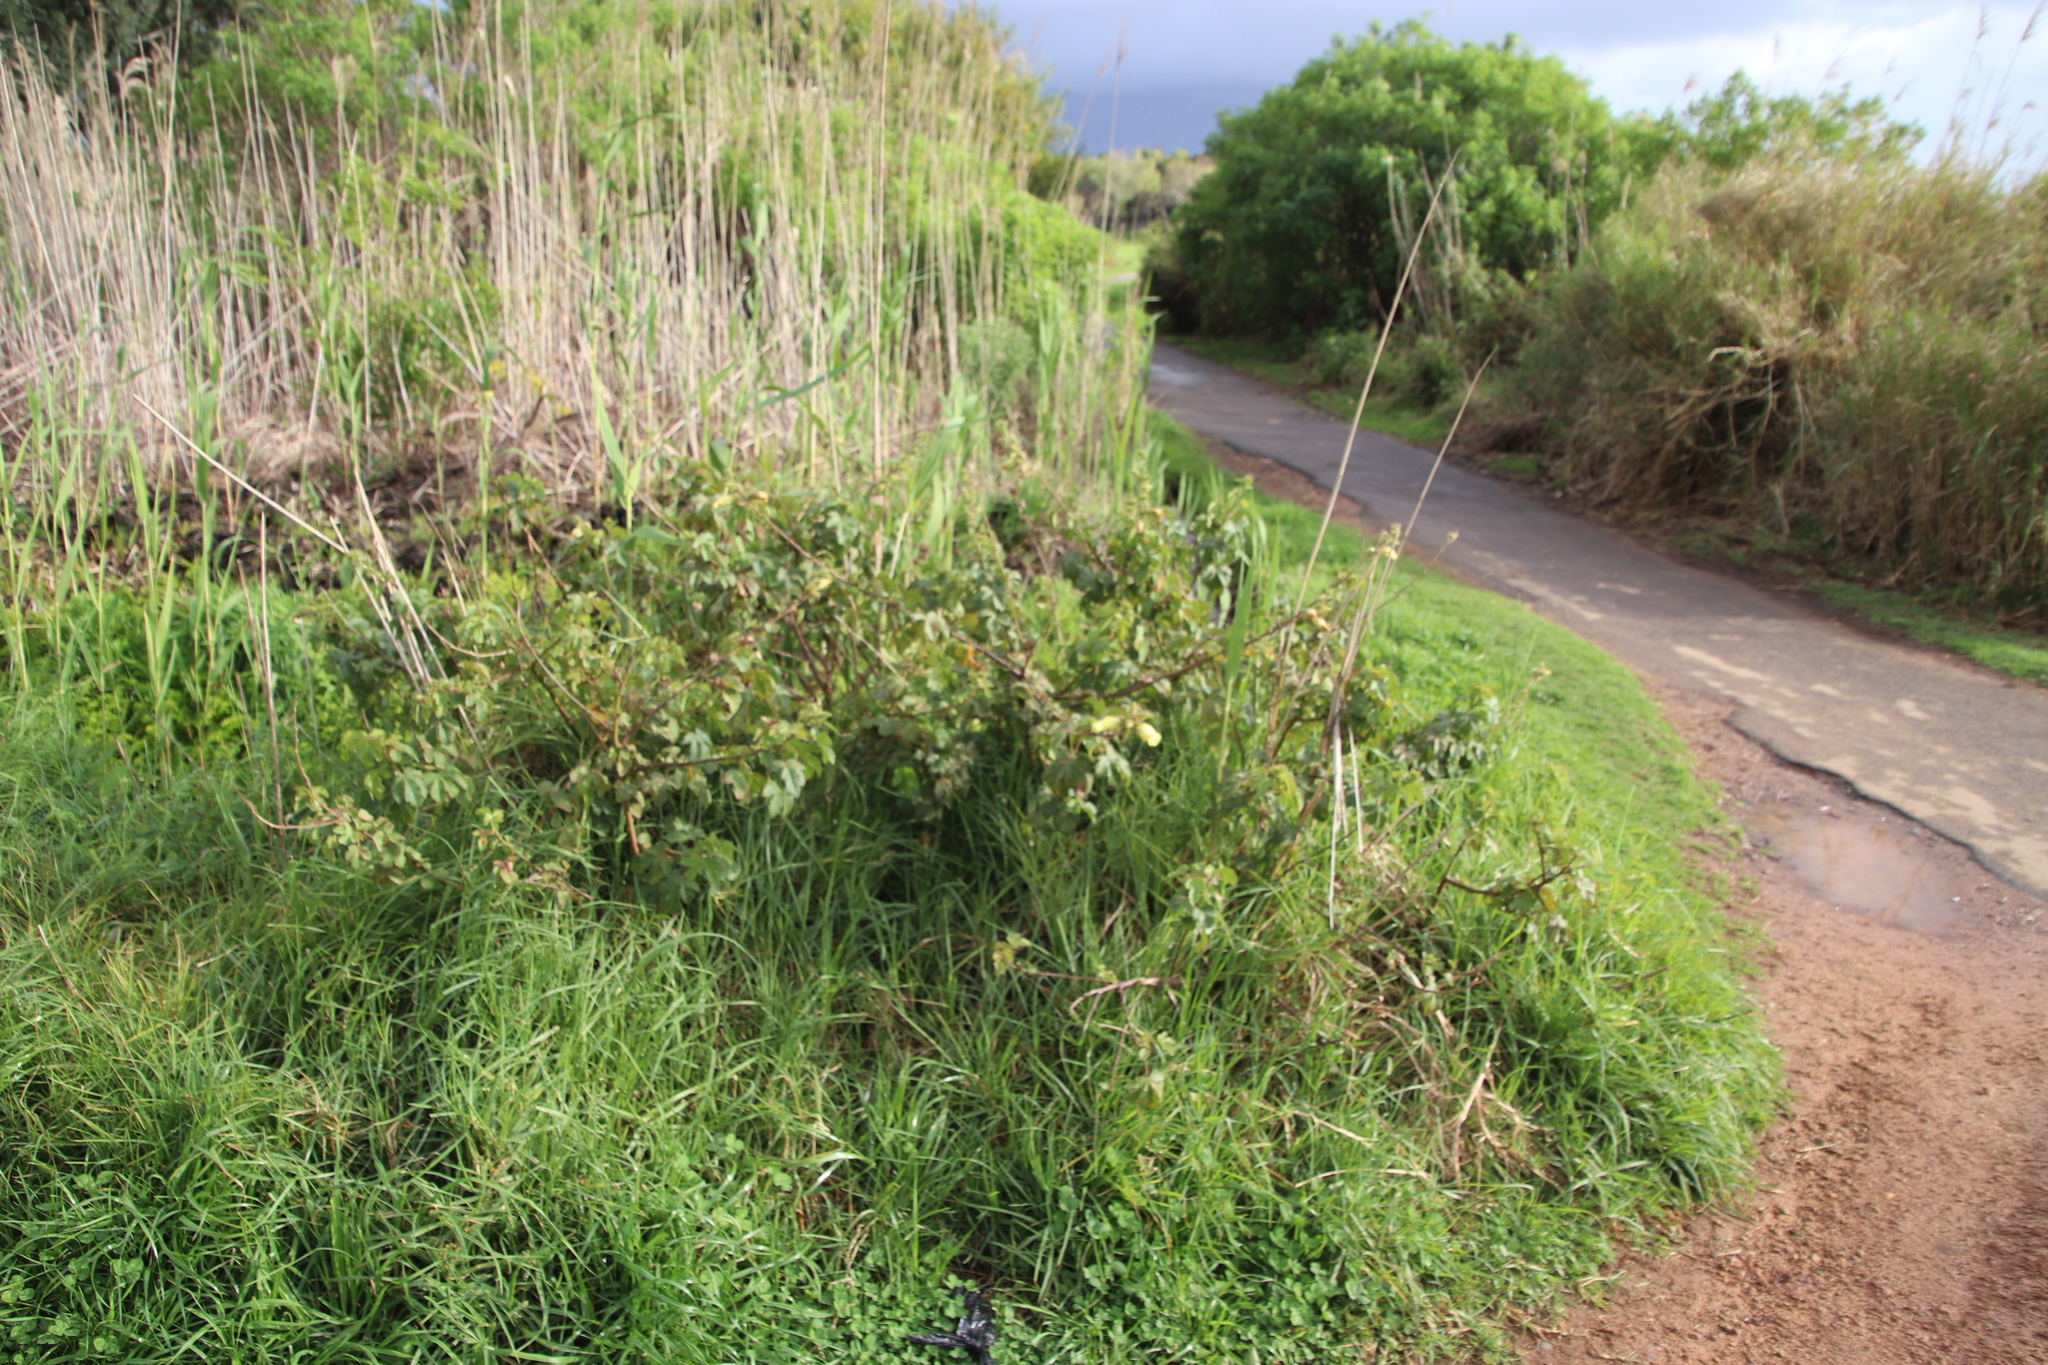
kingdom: Plantae
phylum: Tracheophyta
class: Magnoliopsida
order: Malvales
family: Malvaceae
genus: Hibiscus
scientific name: Hibiscus diversifolius
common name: Cape hibiscus
